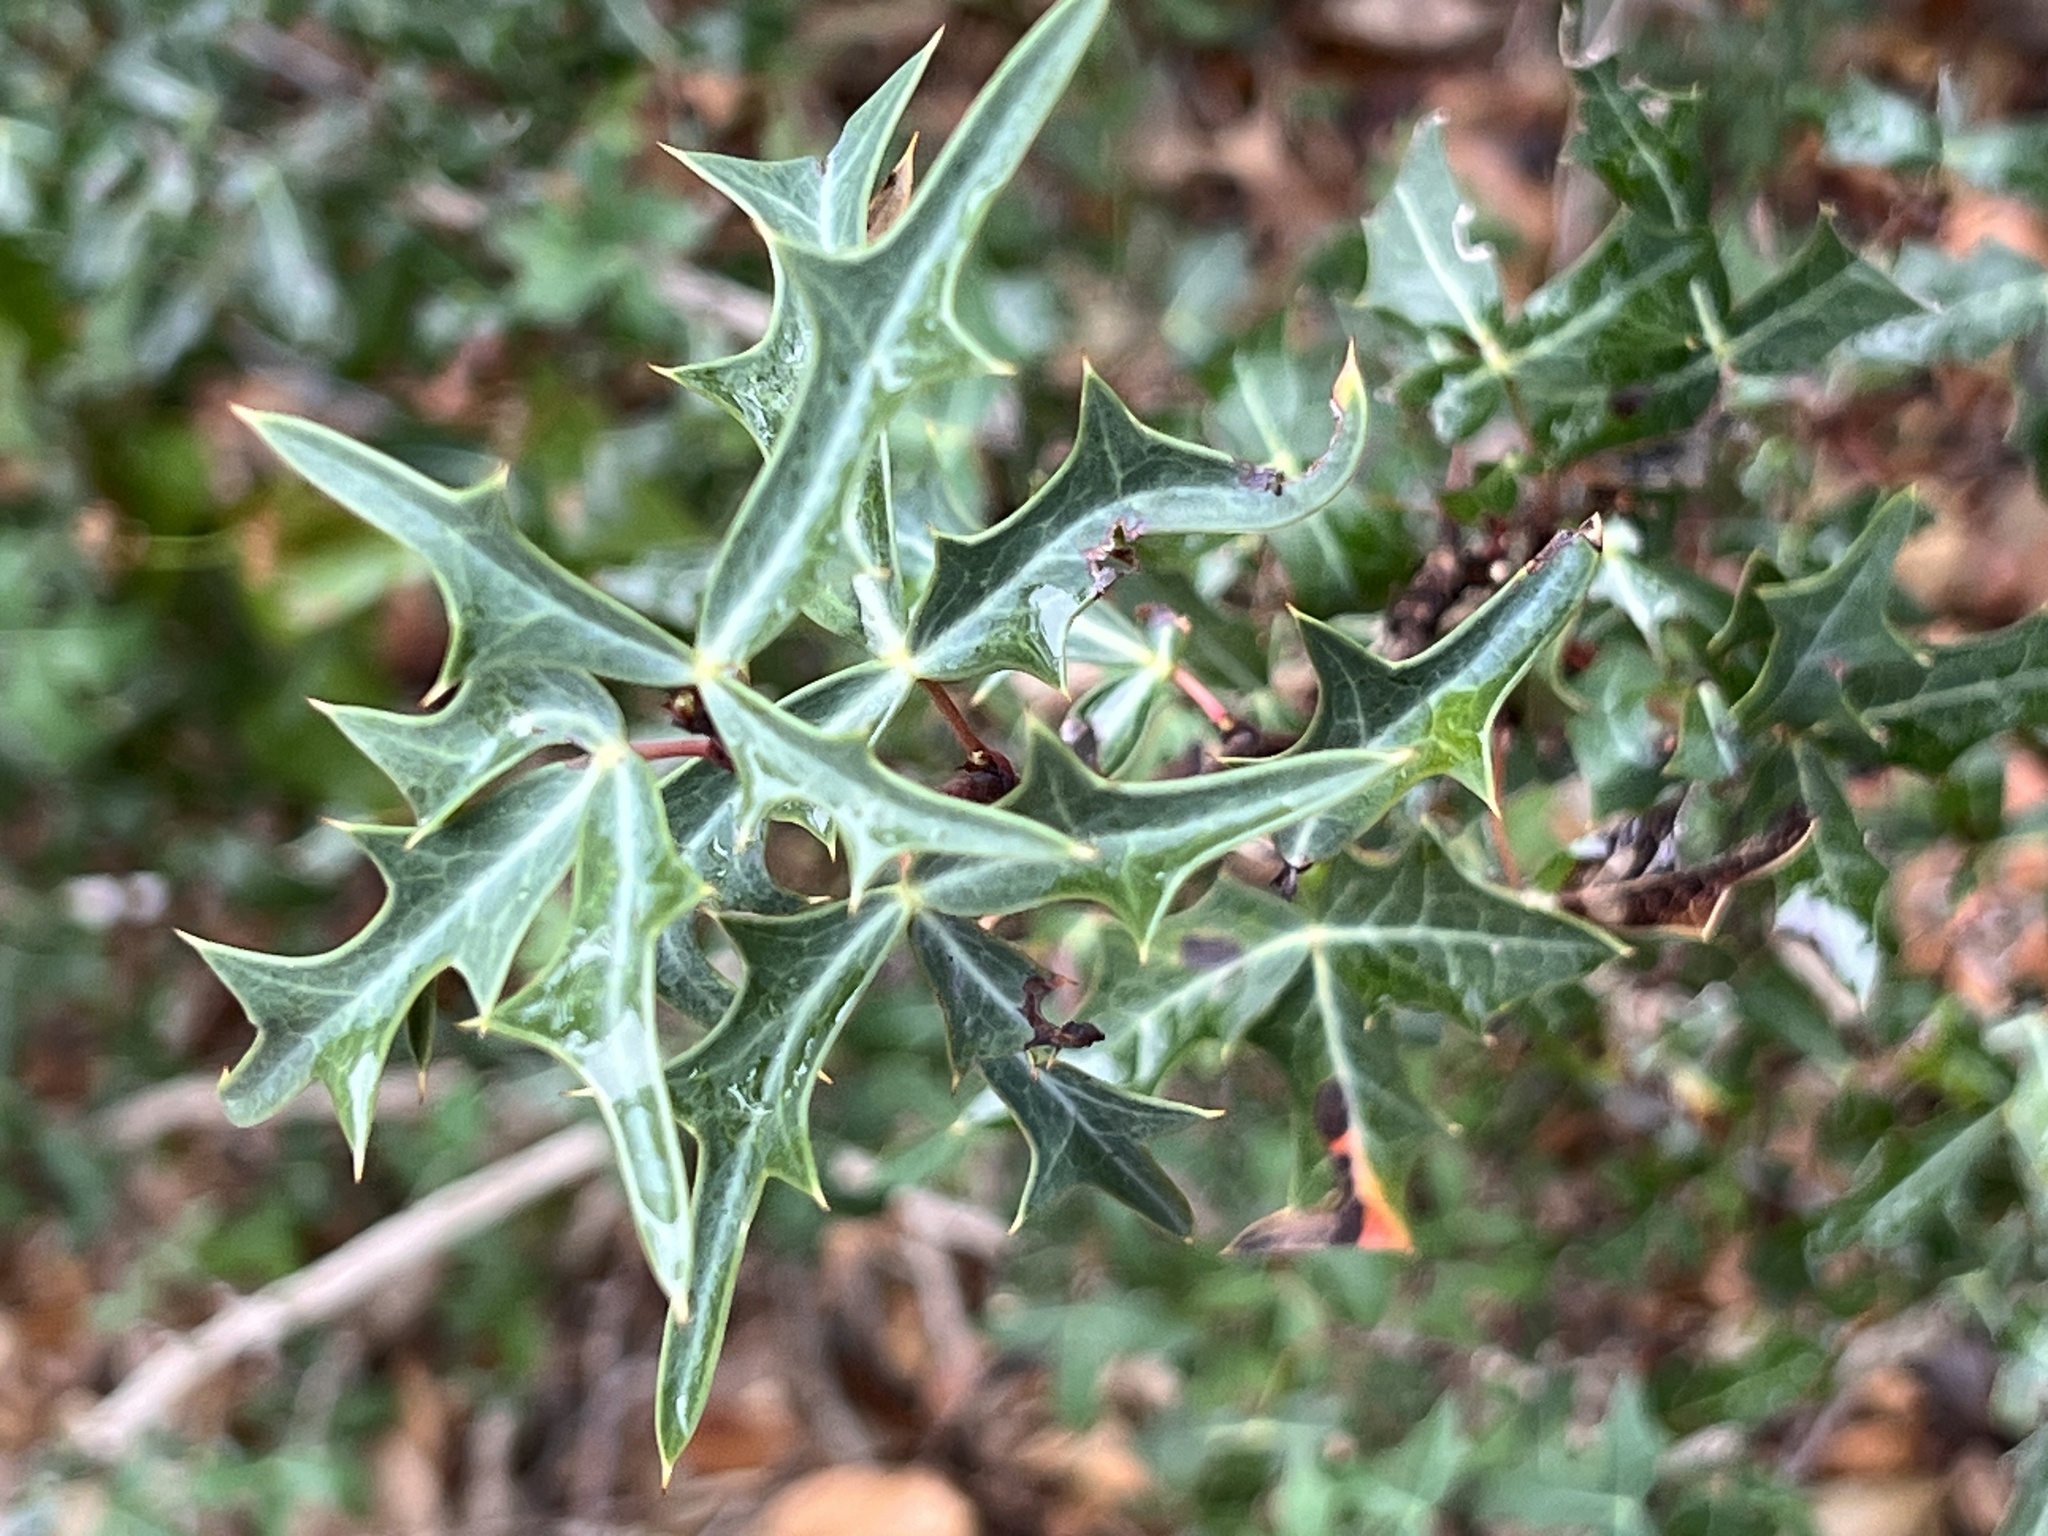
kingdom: Plantae
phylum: Tracheophyta
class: Magnoliopsida
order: Ranunculales
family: Berberidaceae
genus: Alloberberis
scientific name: Alloberberis trifoliolata
